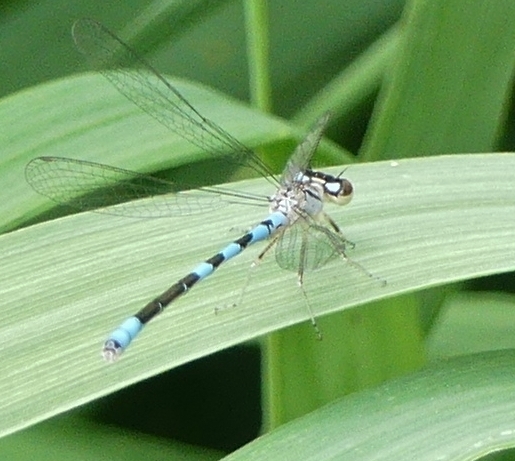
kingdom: Animalia
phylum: Arthropoda
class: Insecta
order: Odonata
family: Coenagrionidae
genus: Coenagrion
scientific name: Coenagrion resolutum
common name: Taiga bluet
